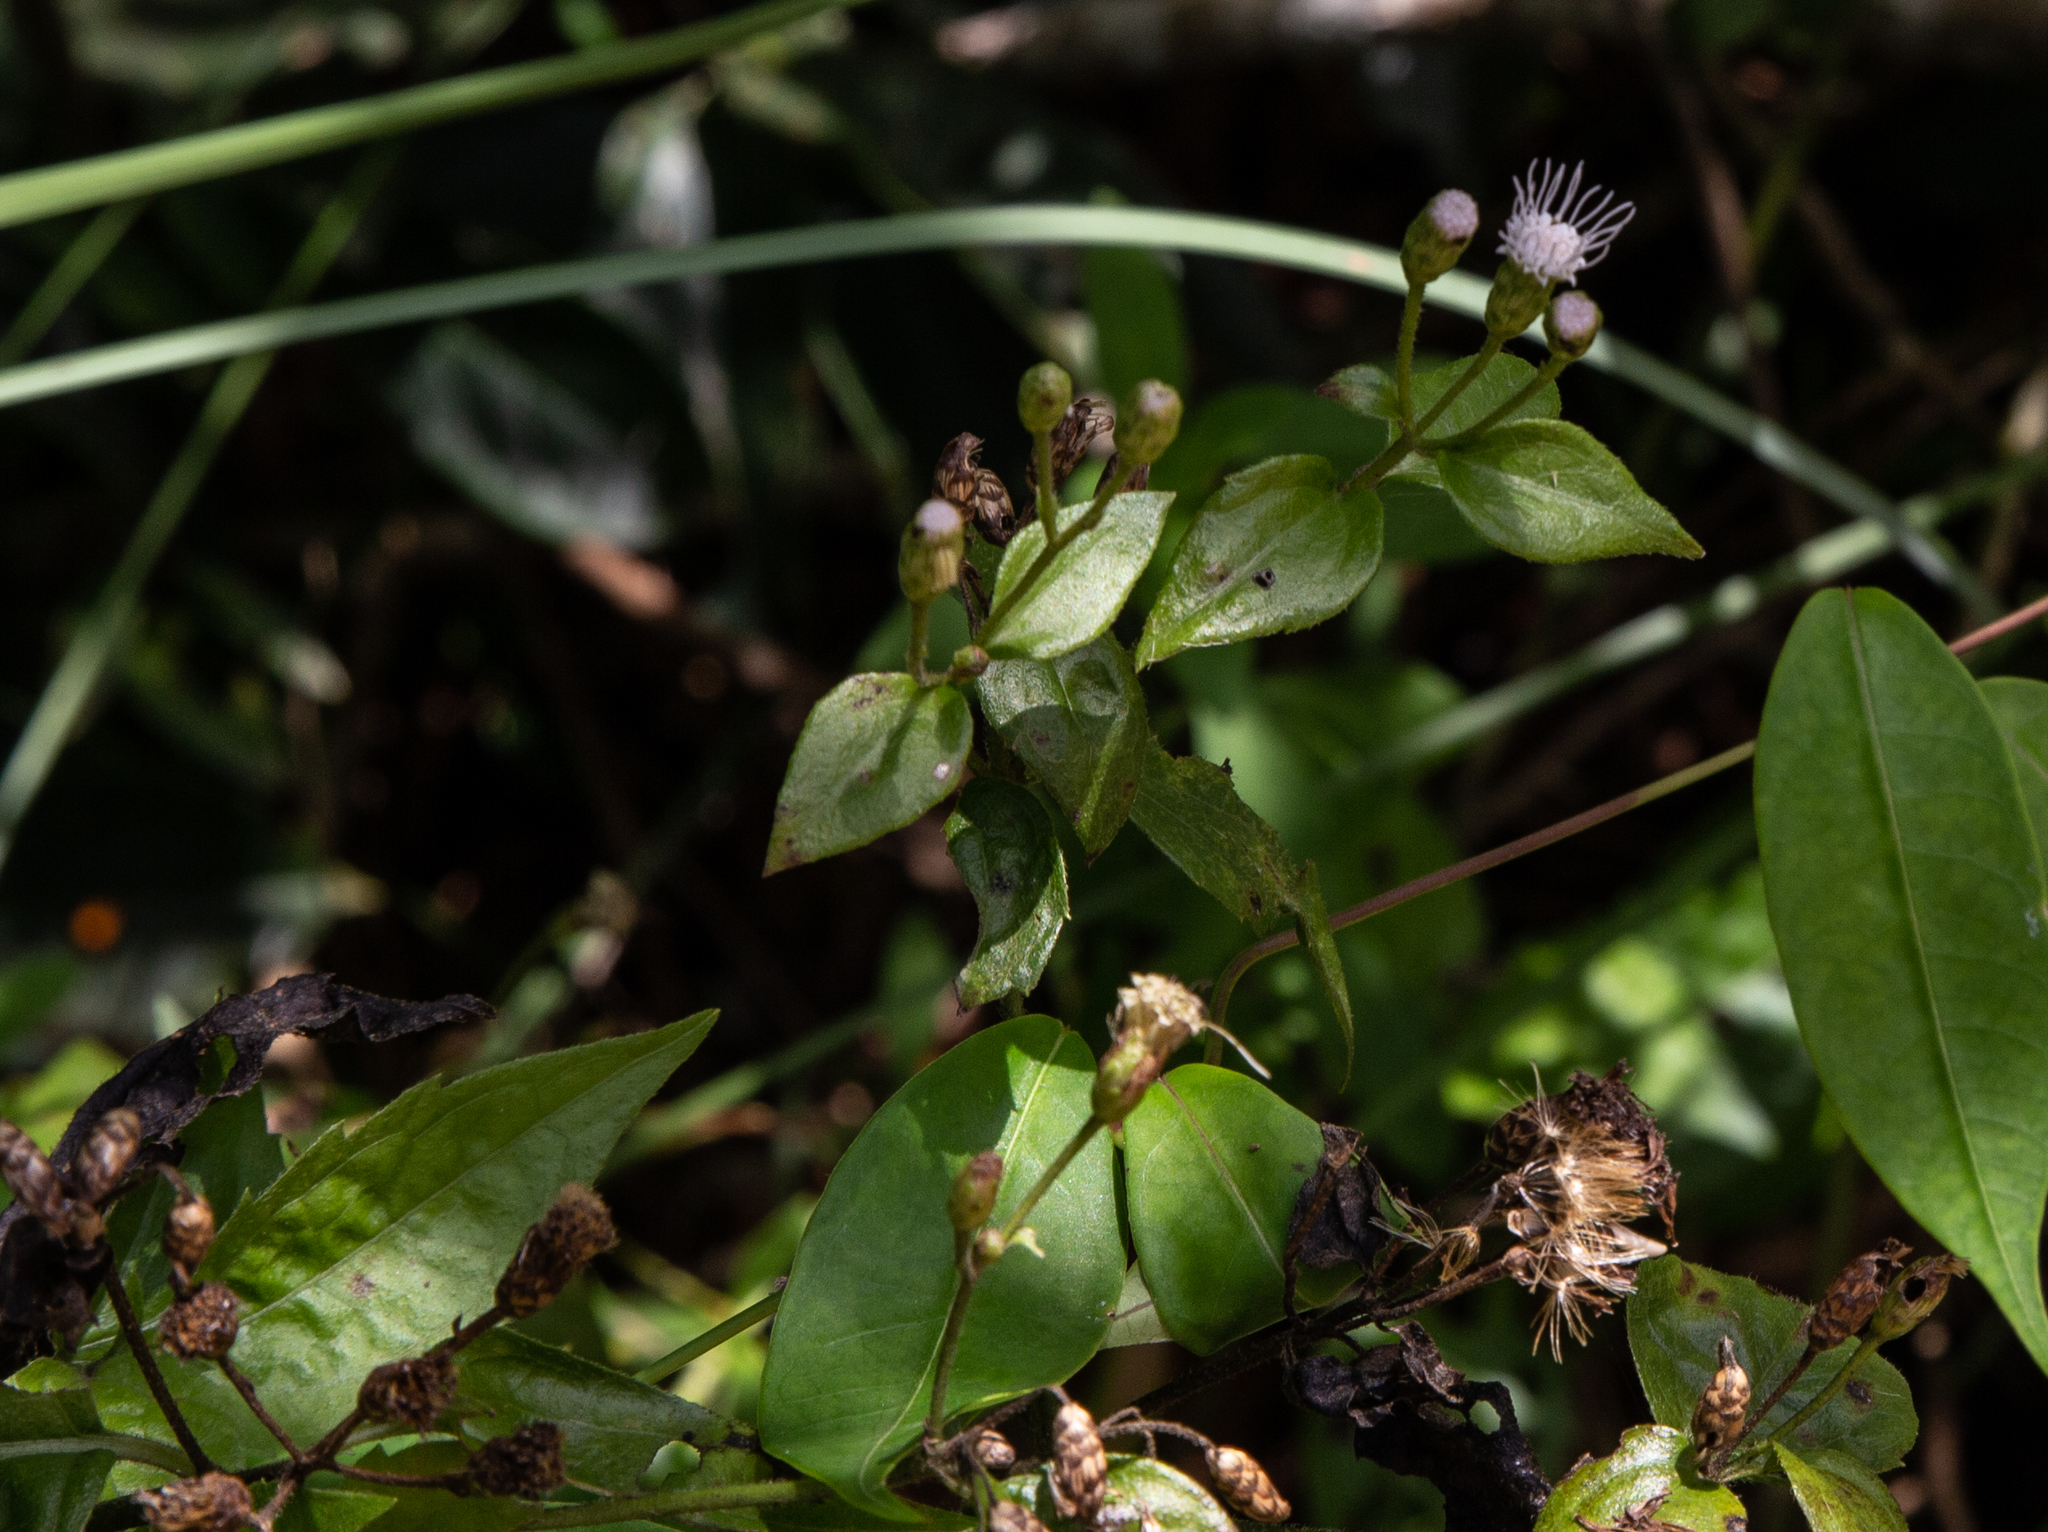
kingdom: Plantae
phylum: Tracheophyta
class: Magnoliopsida
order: Asterales
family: Asteraceae
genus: Chromolaena
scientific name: Chromolaena odorata
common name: Siamweed
